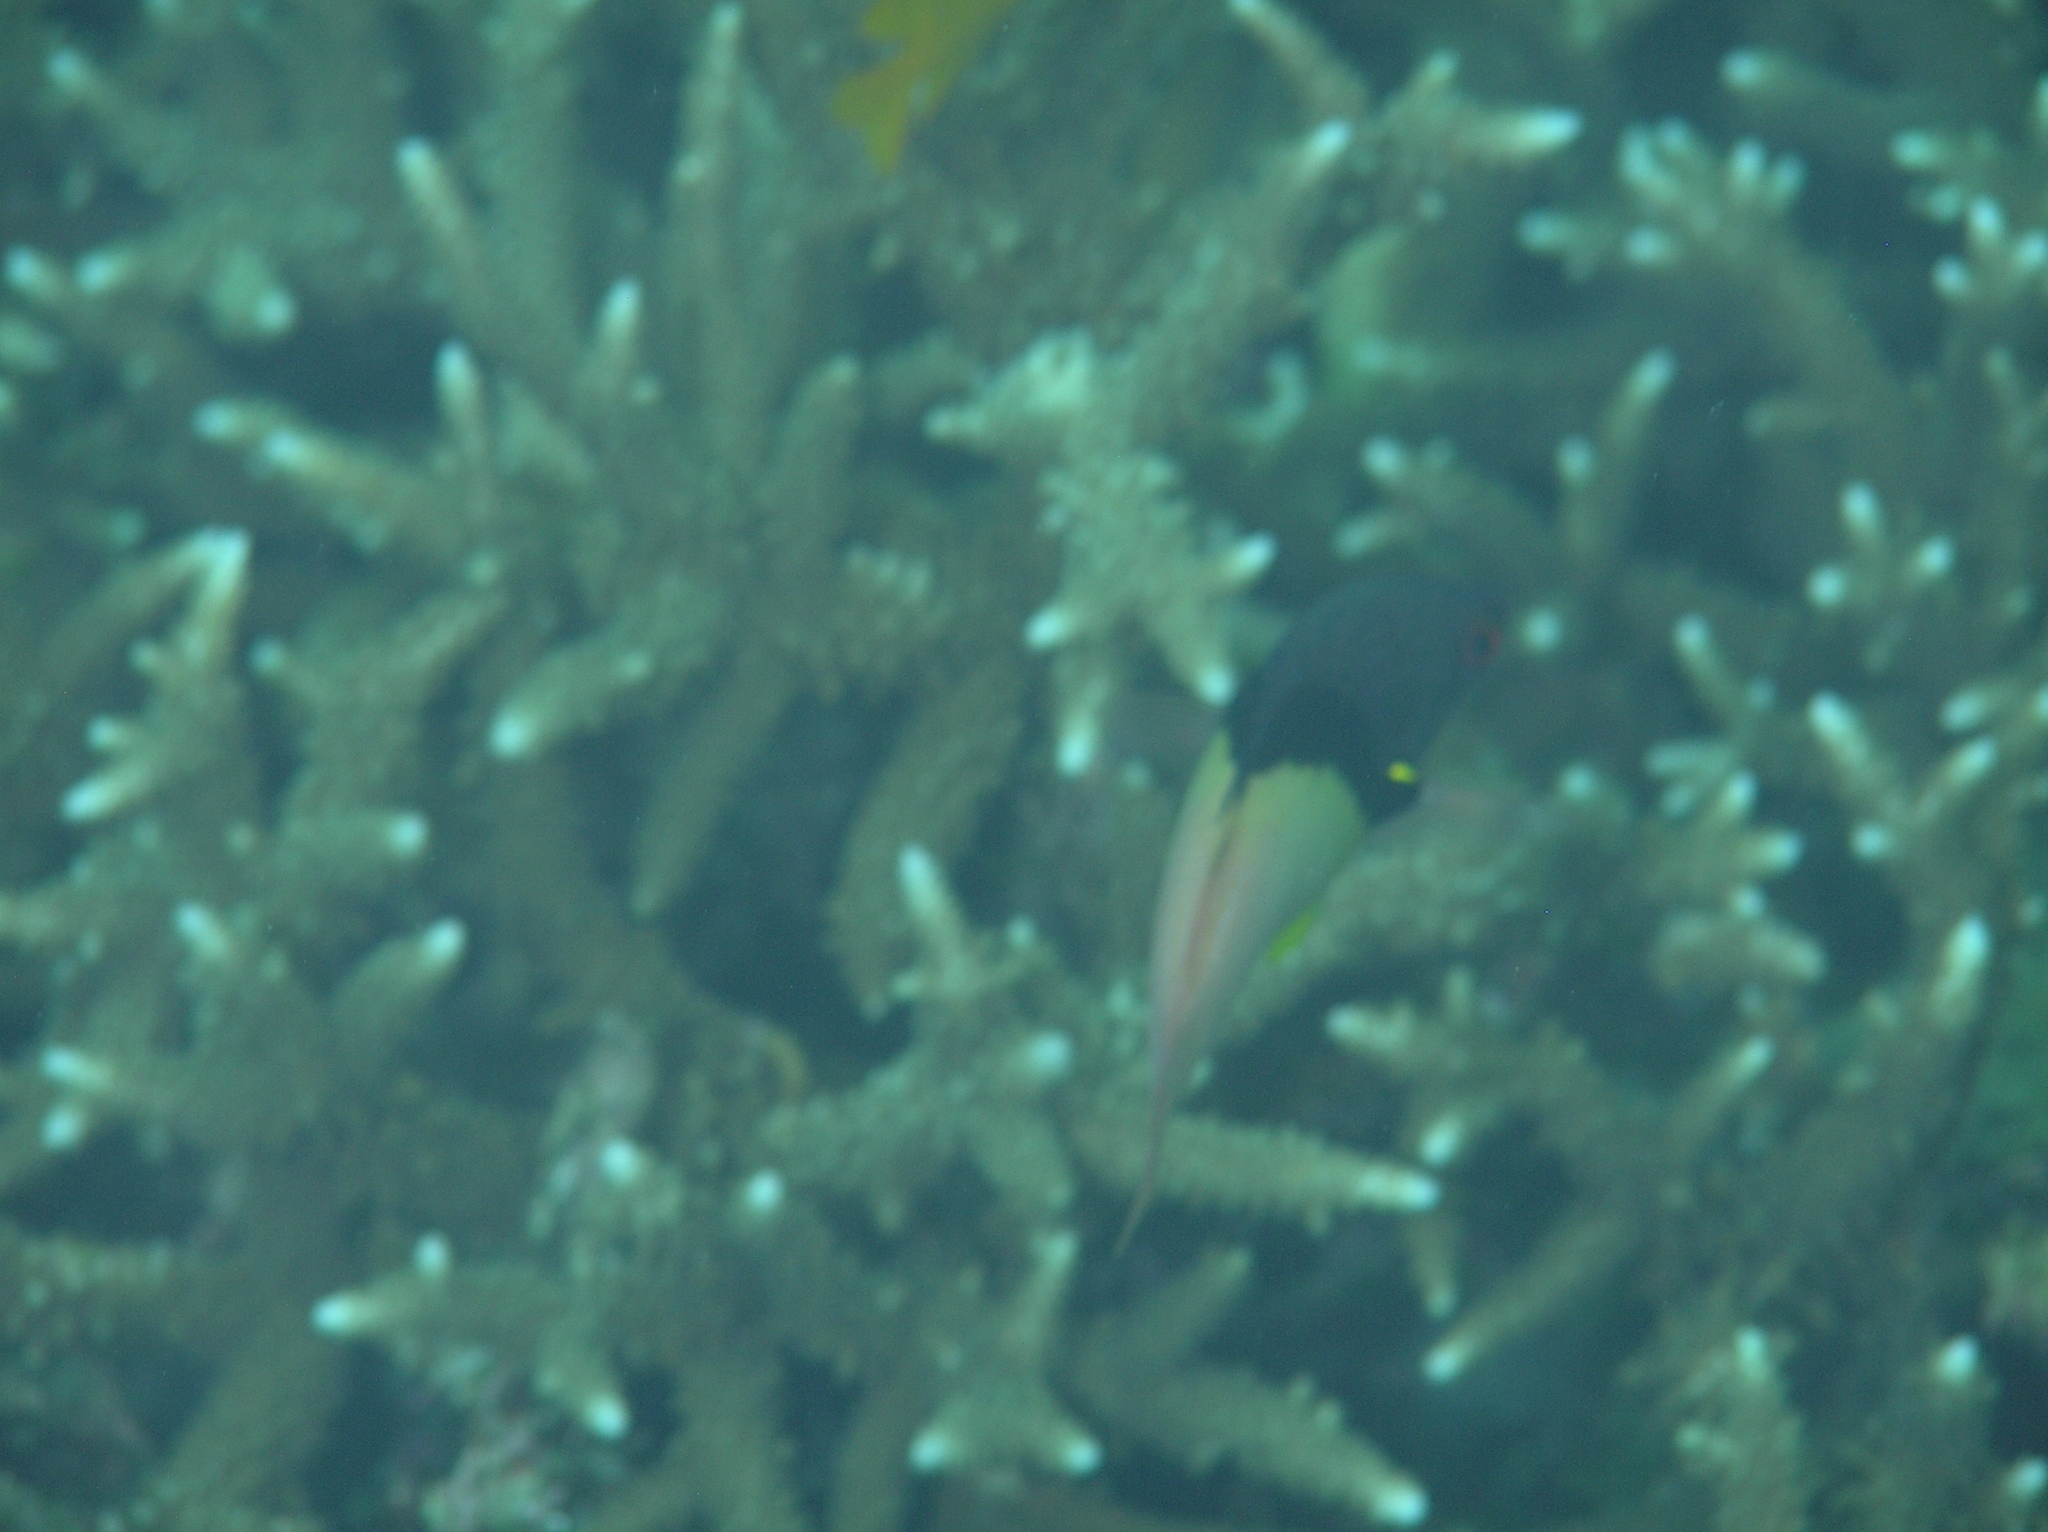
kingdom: Animalia
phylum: Chordata
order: Perciformes
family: Labridae
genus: Bodianus
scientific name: Bodianus mesothorax
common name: Coral hogfish
